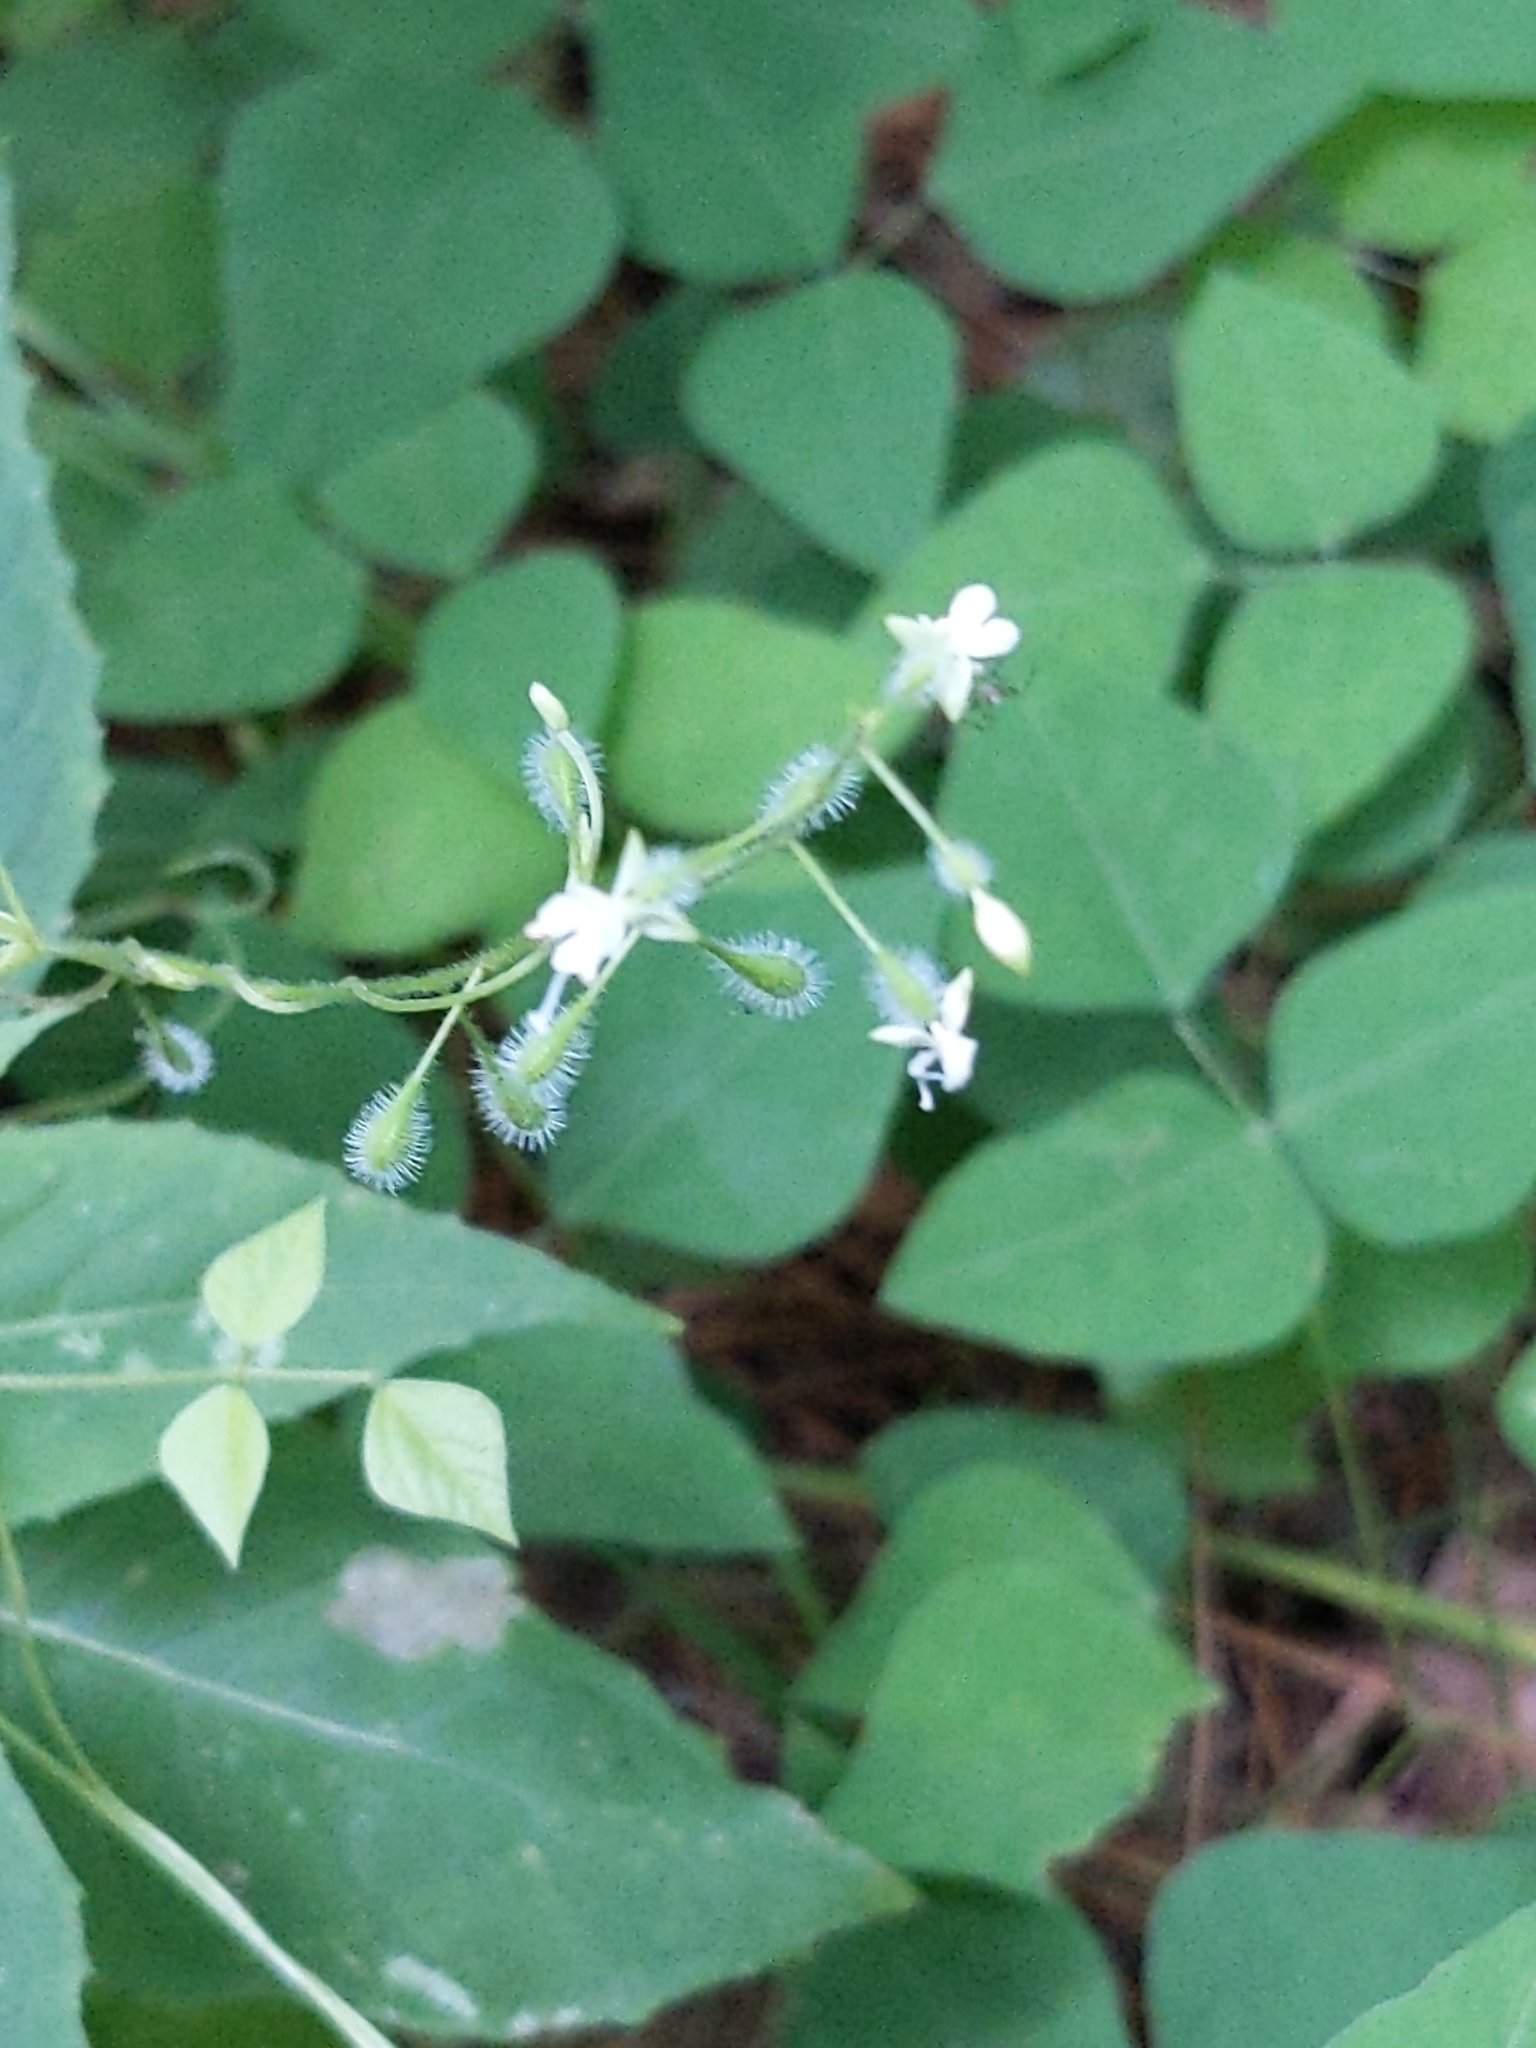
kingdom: Plantae
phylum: Tracheophyta
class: Magnoliopsida
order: Myrtales
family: Onagraceae
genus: Circaea
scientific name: Circaea canadensis
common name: Broad-leaved enchanter's nightshade
